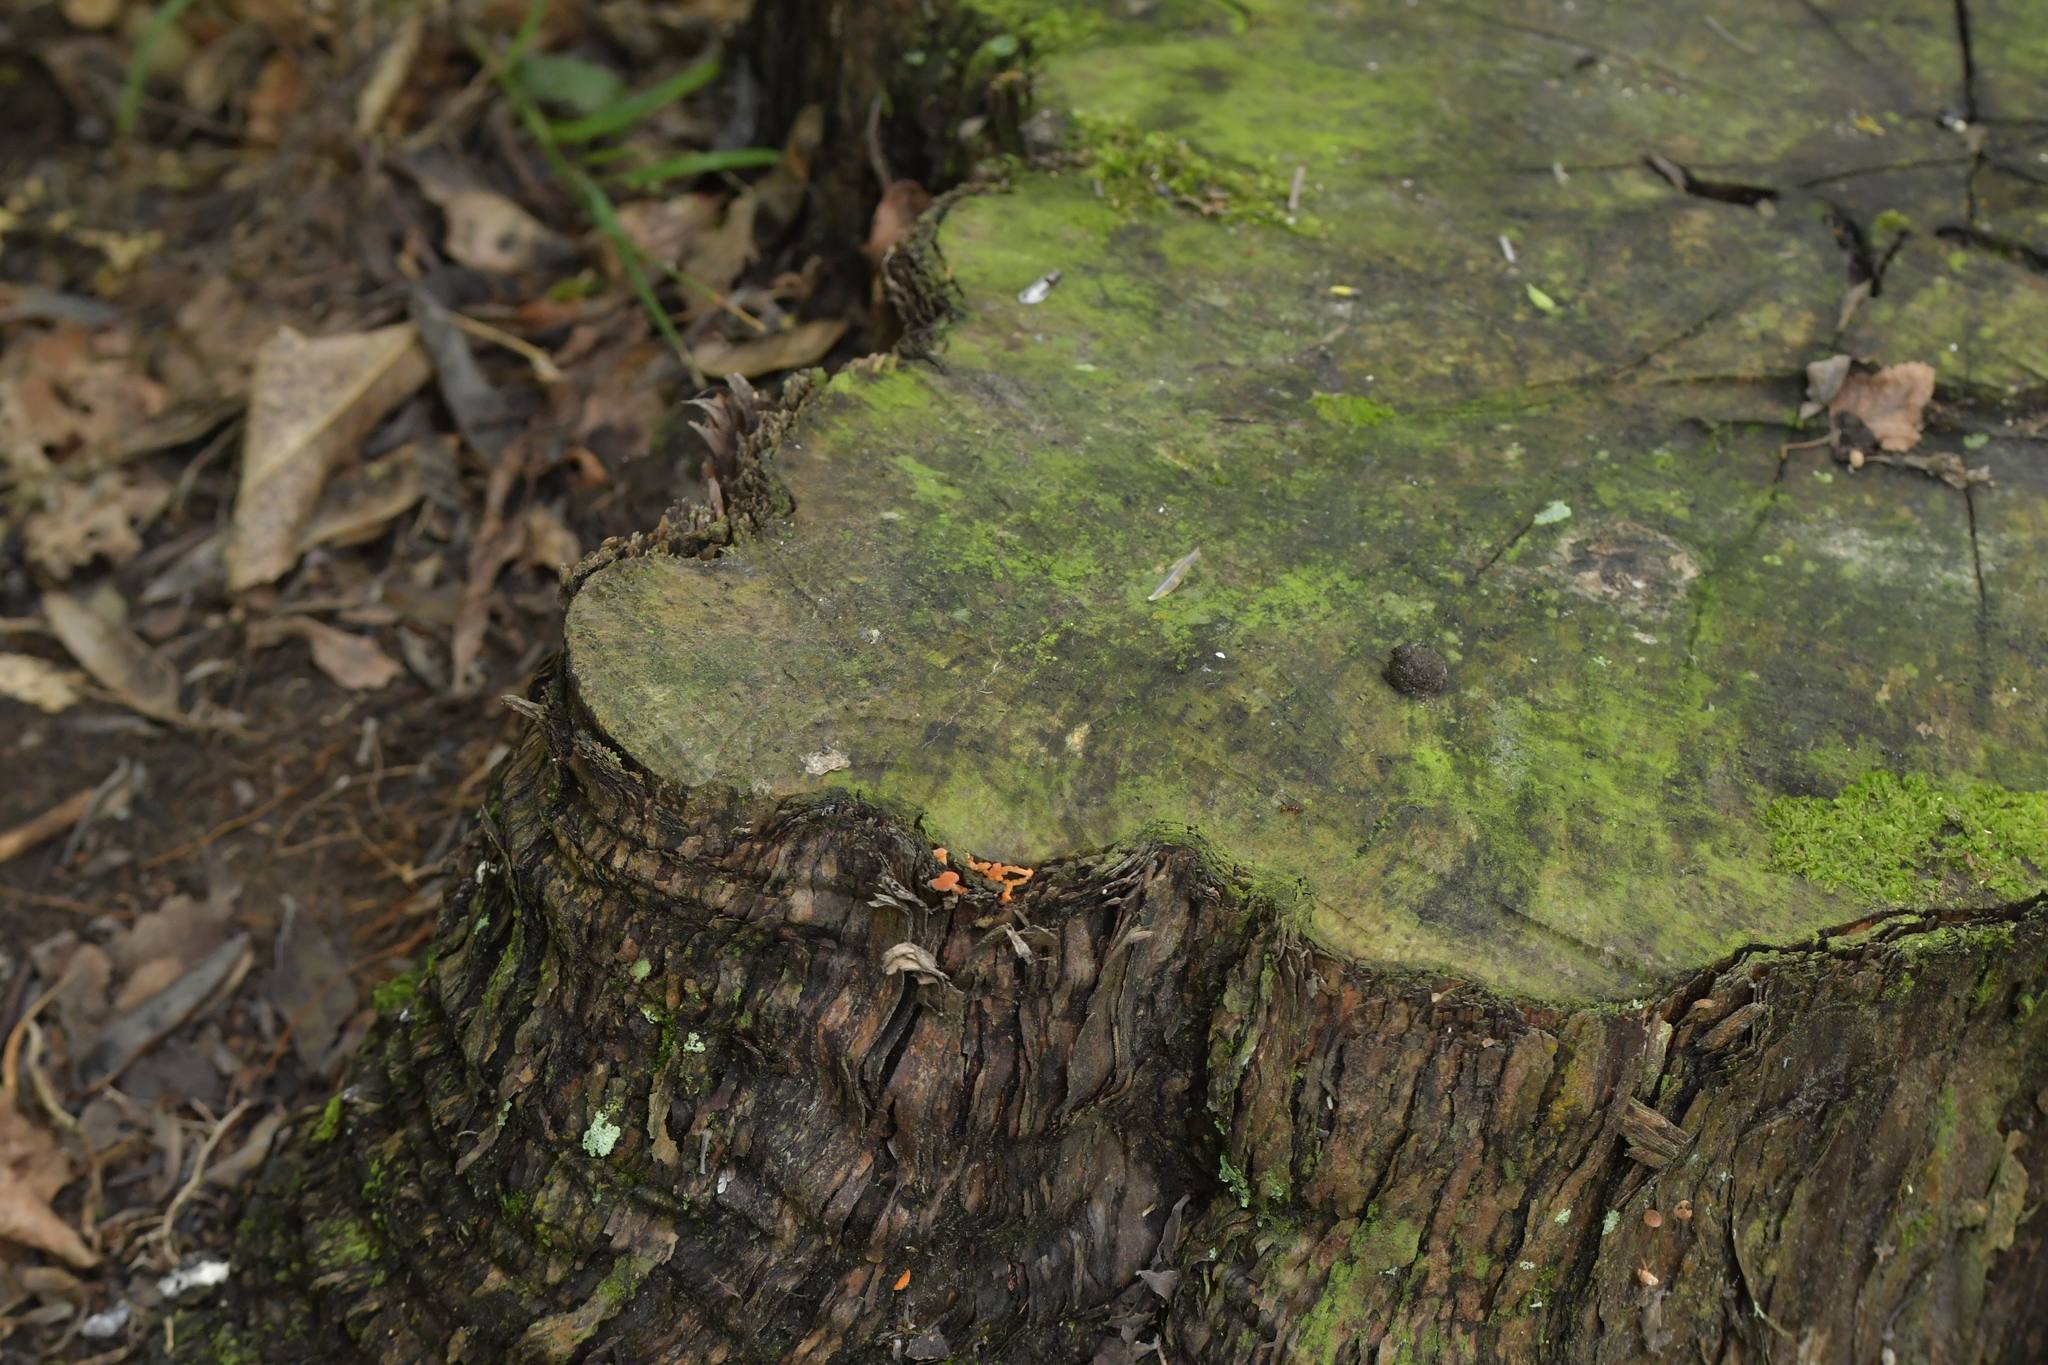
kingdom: Fungi
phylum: Basidiomycota
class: Agaricomycetes
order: Agaricales
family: Mycenaceae
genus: Favolaschia
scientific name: Favolaschia claudopus
